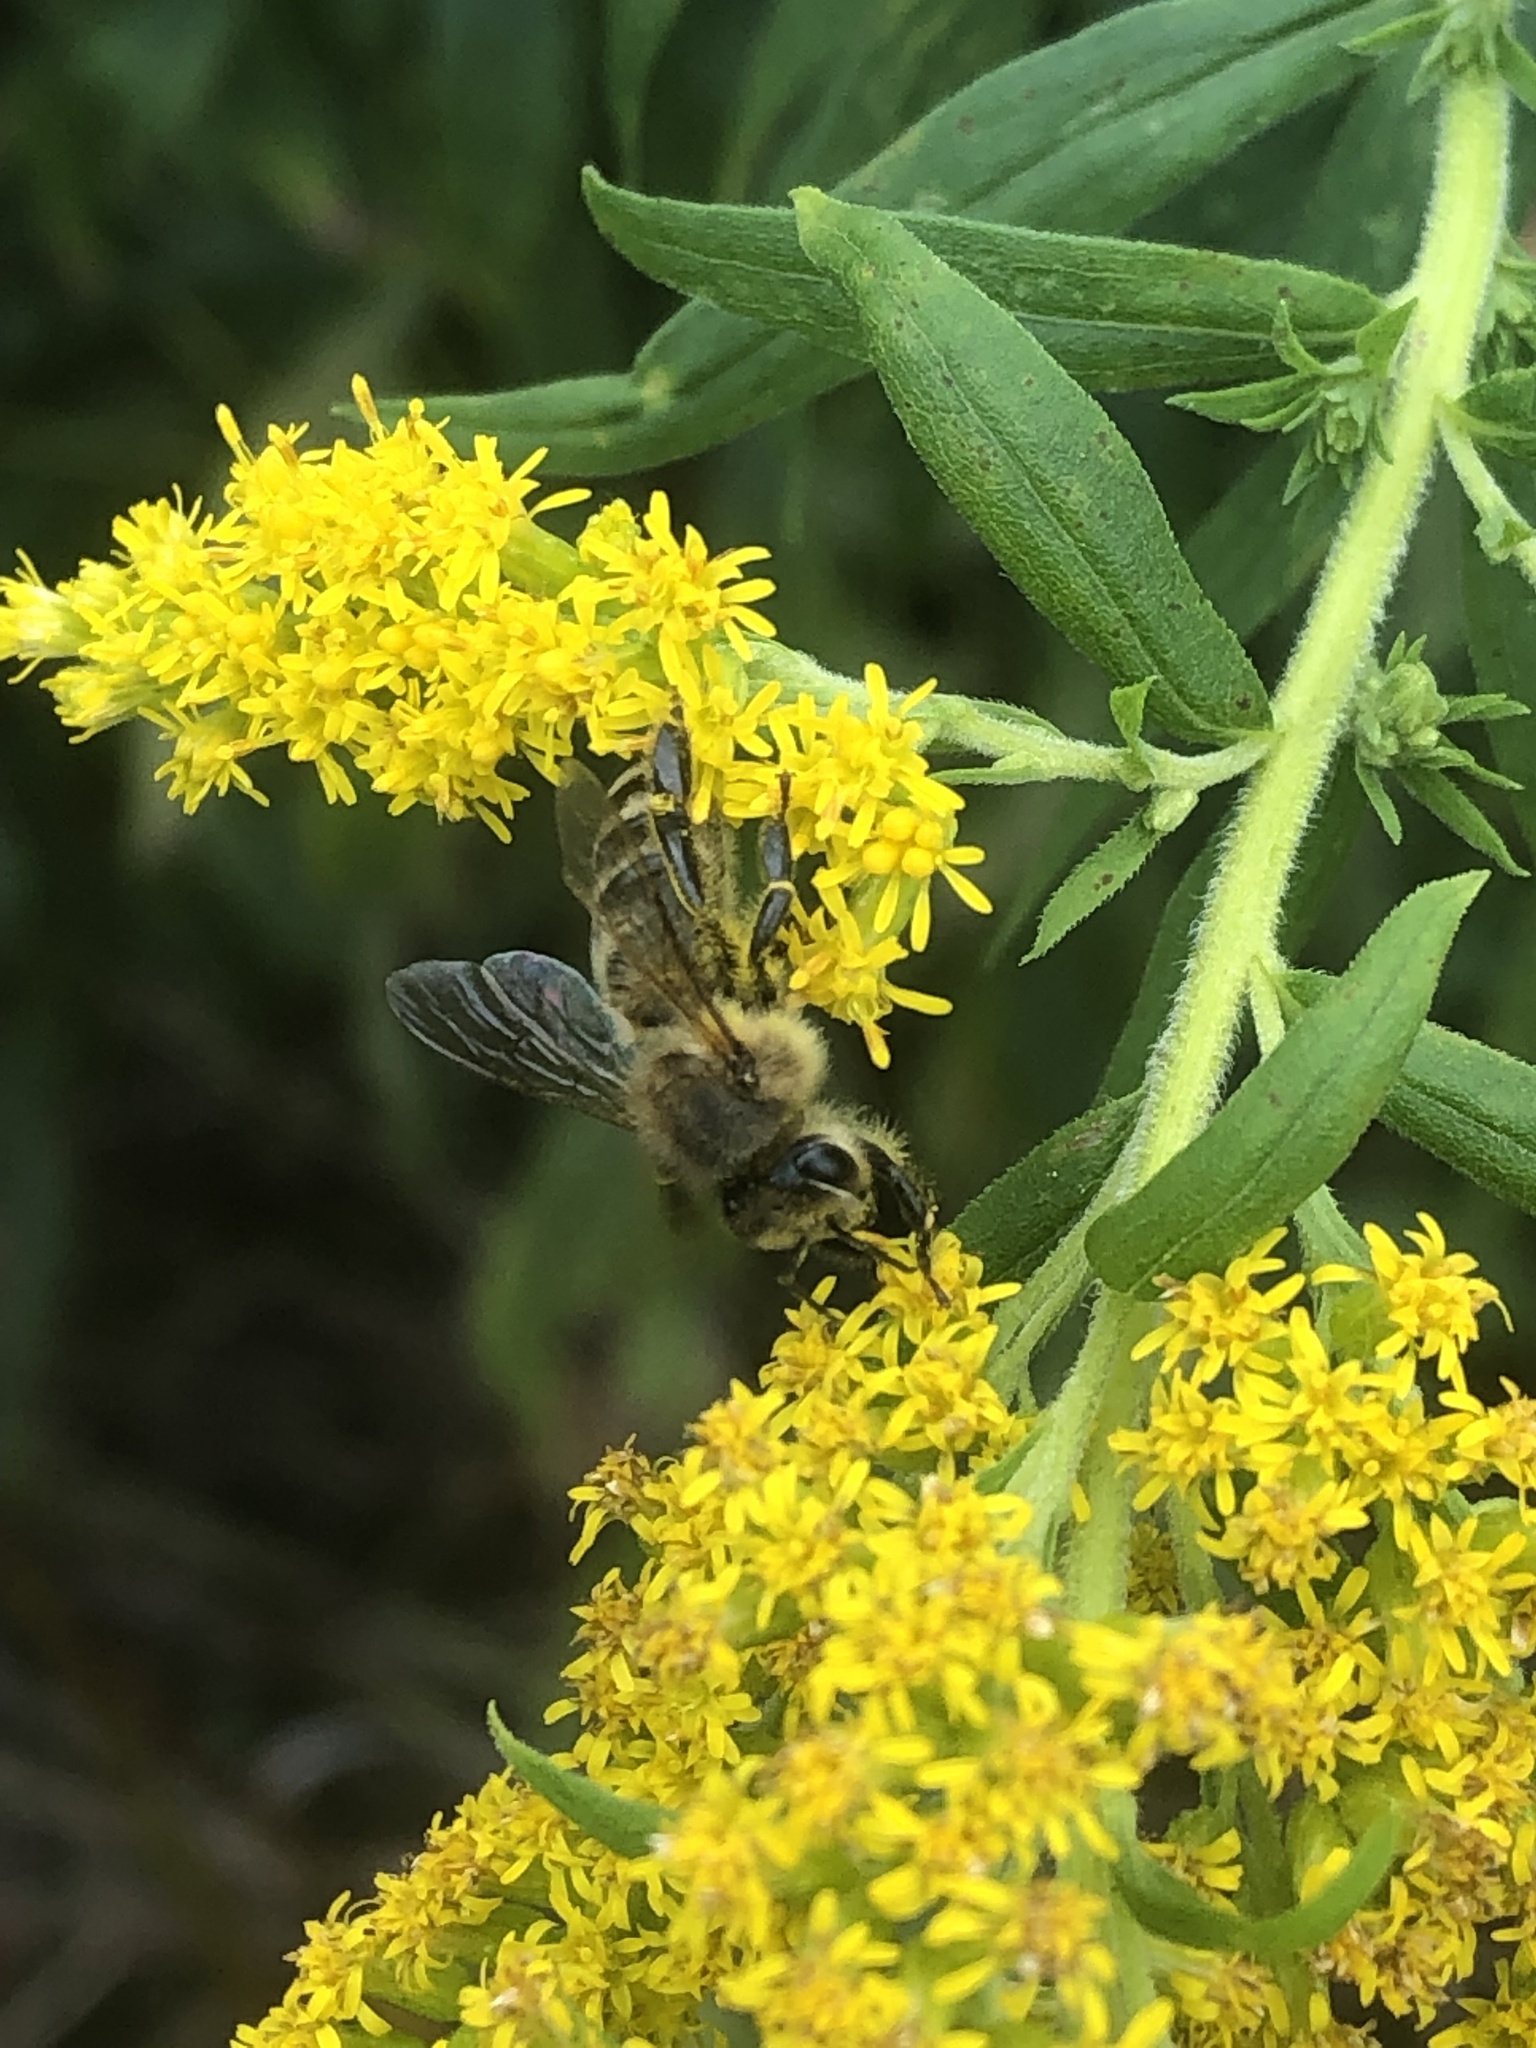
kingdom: Animalia
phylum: Arthropoda
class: Insecta
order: Hymenoptera
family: Apidae
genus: Apis
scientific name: Apis mellifera
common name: Honey bee
